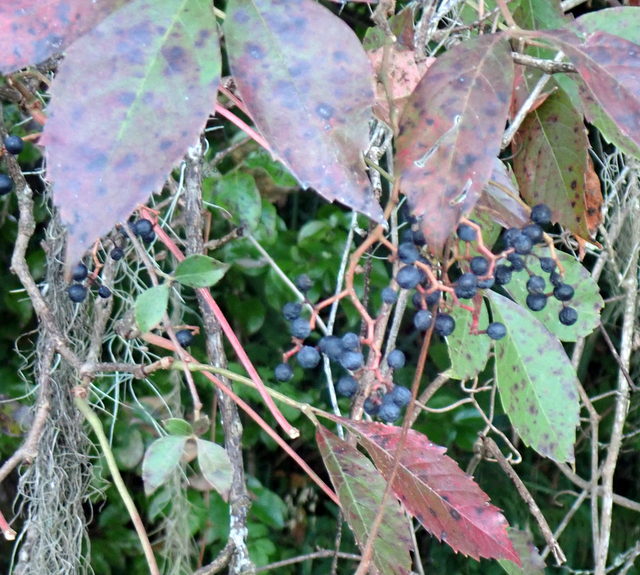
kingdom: Plantae
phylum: Tracheophyta
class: Magnoliopsida
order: Vitales
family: Vitaceae
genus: Parthenocissus
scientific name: Parthenocissus quinquefolia
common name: Virginia-creeper
